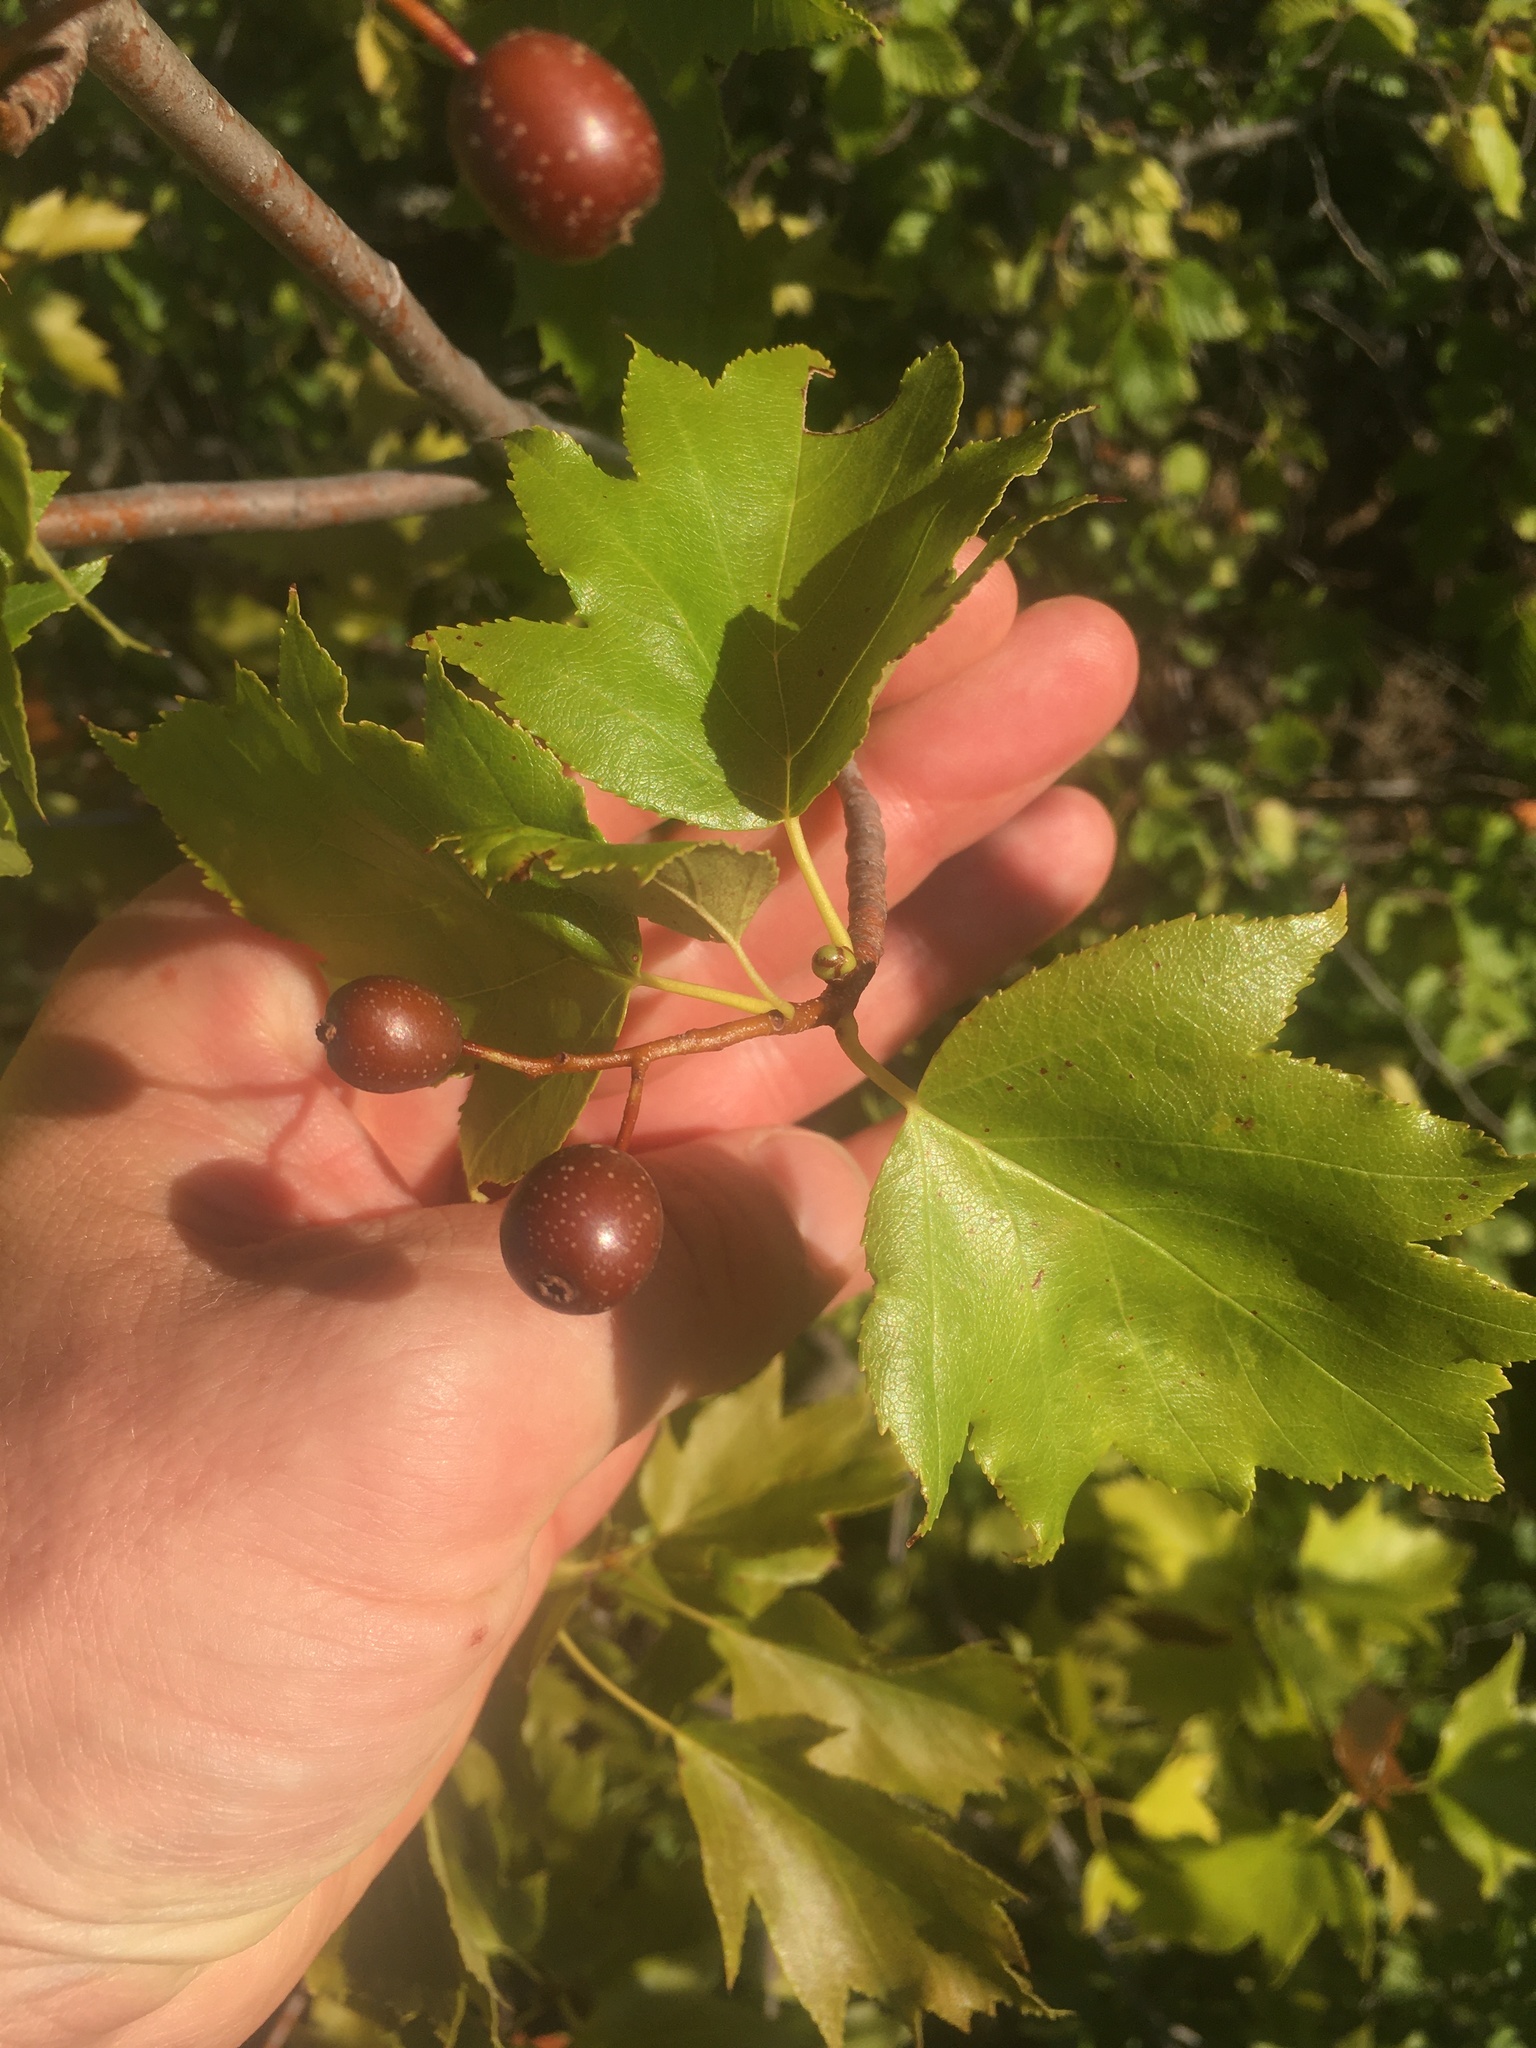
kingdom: Plantae
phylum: Tracheophyta
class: Magnoliopsida
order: Rosales
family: Rosaceae
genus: Torminalis
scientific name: Torminalis glaberrima
